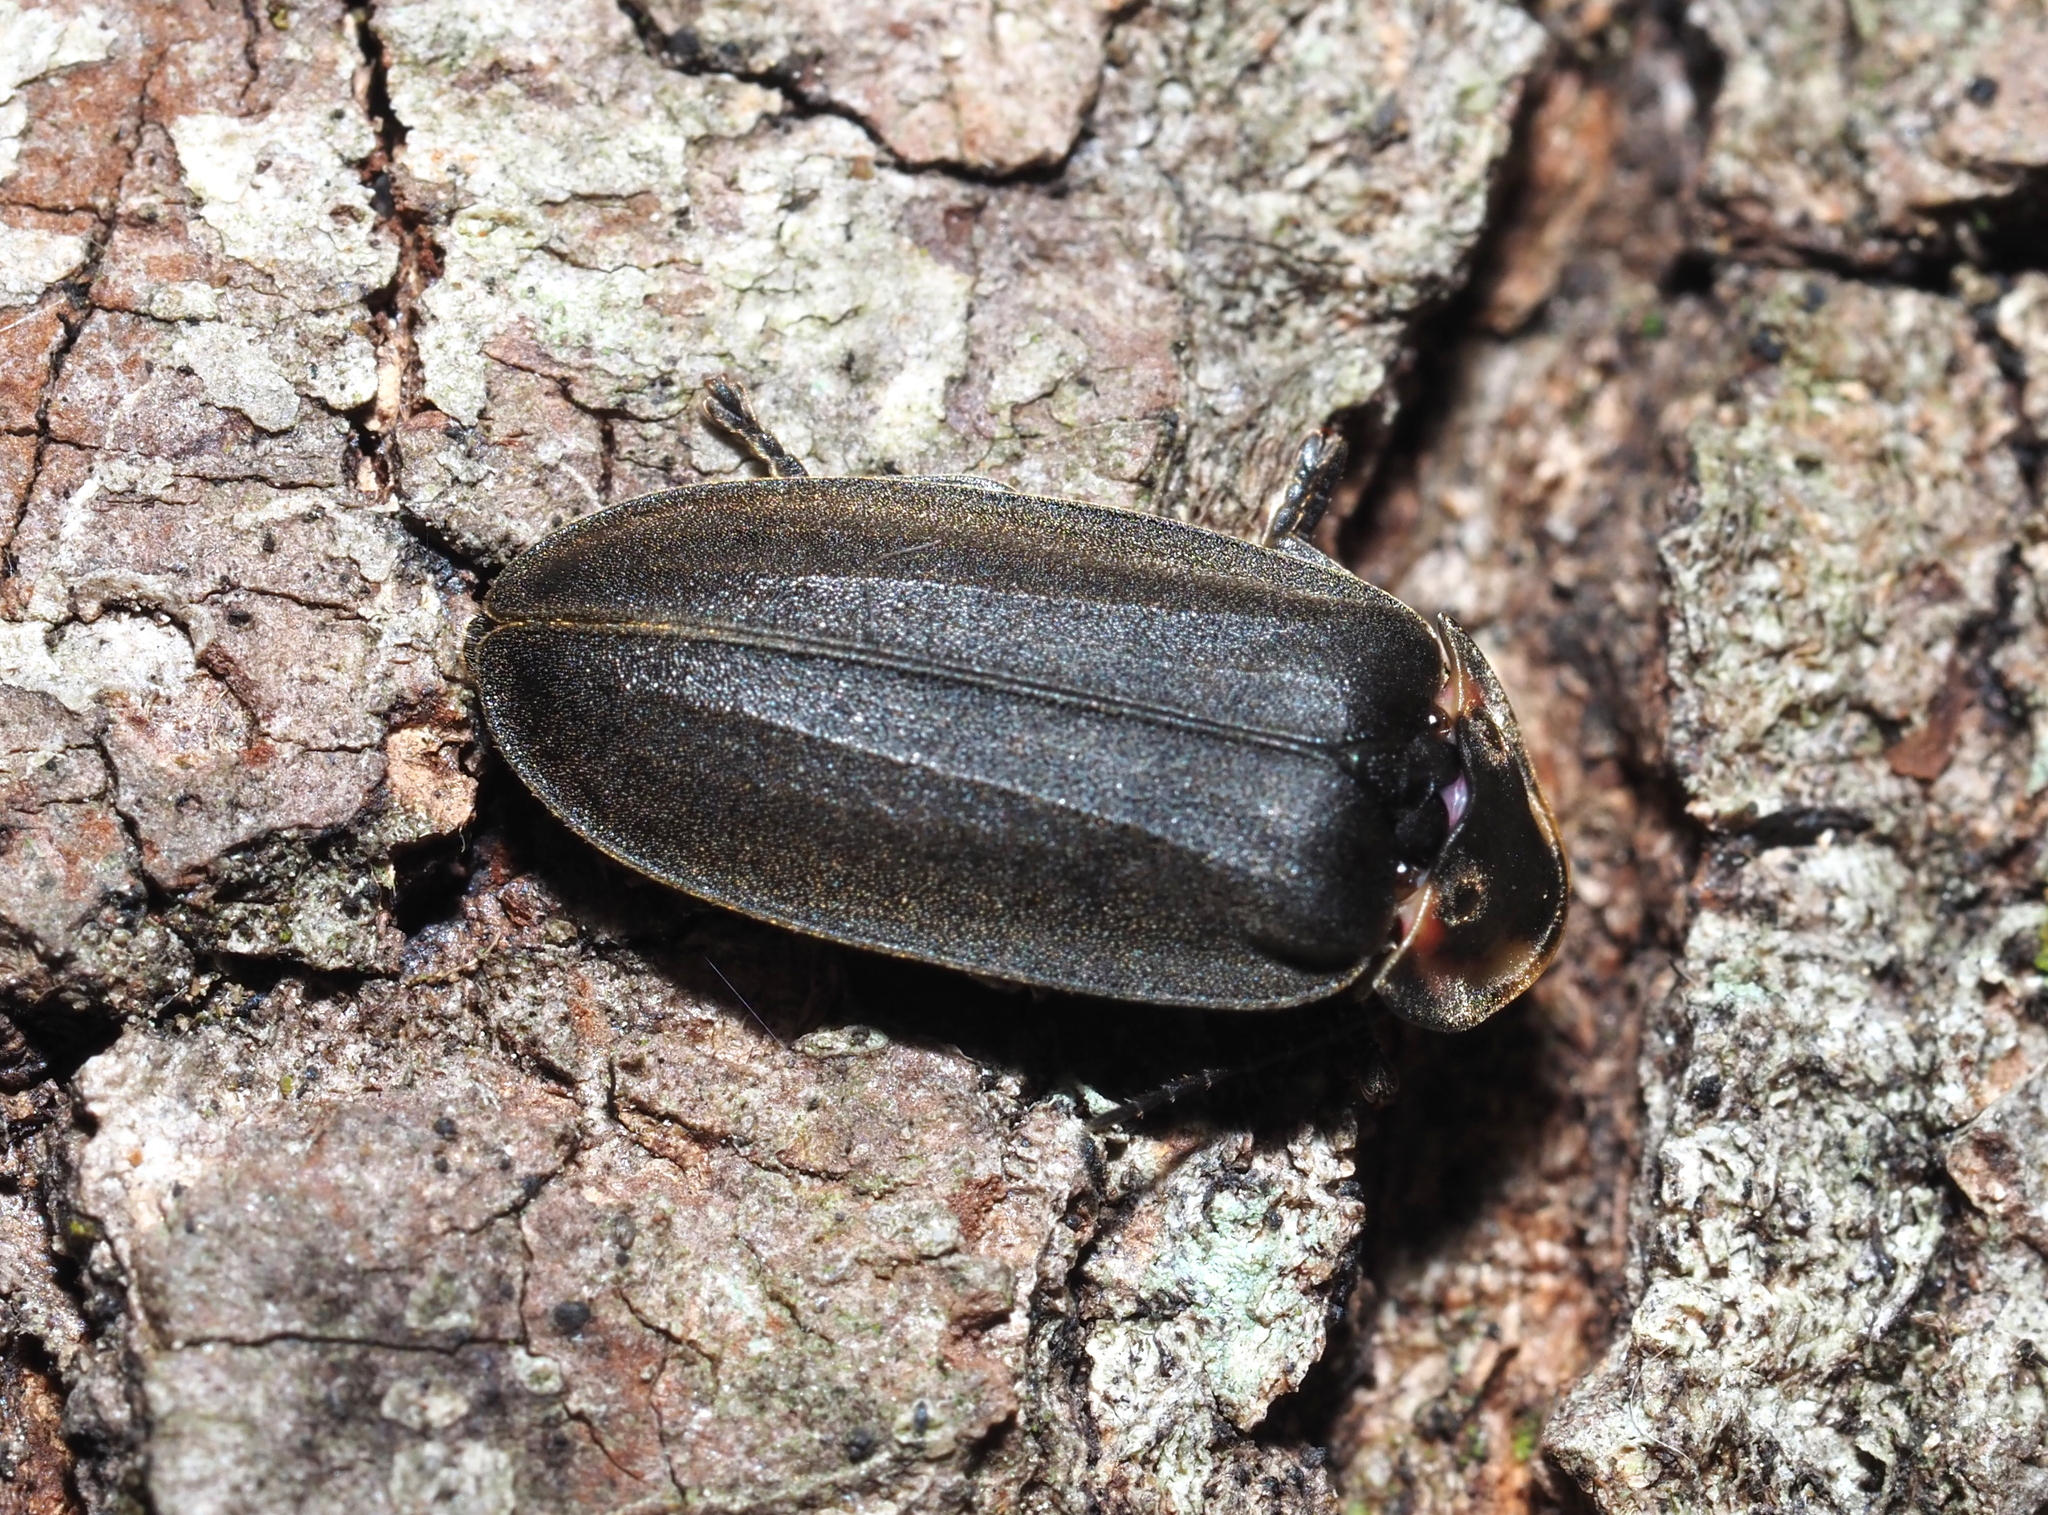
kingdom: Animalia
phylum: Arthropoda
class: Insecta
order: Coleoptera
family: Lampyridae
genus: Photinus
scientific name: Photinus corrusca
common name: Winter firefly
